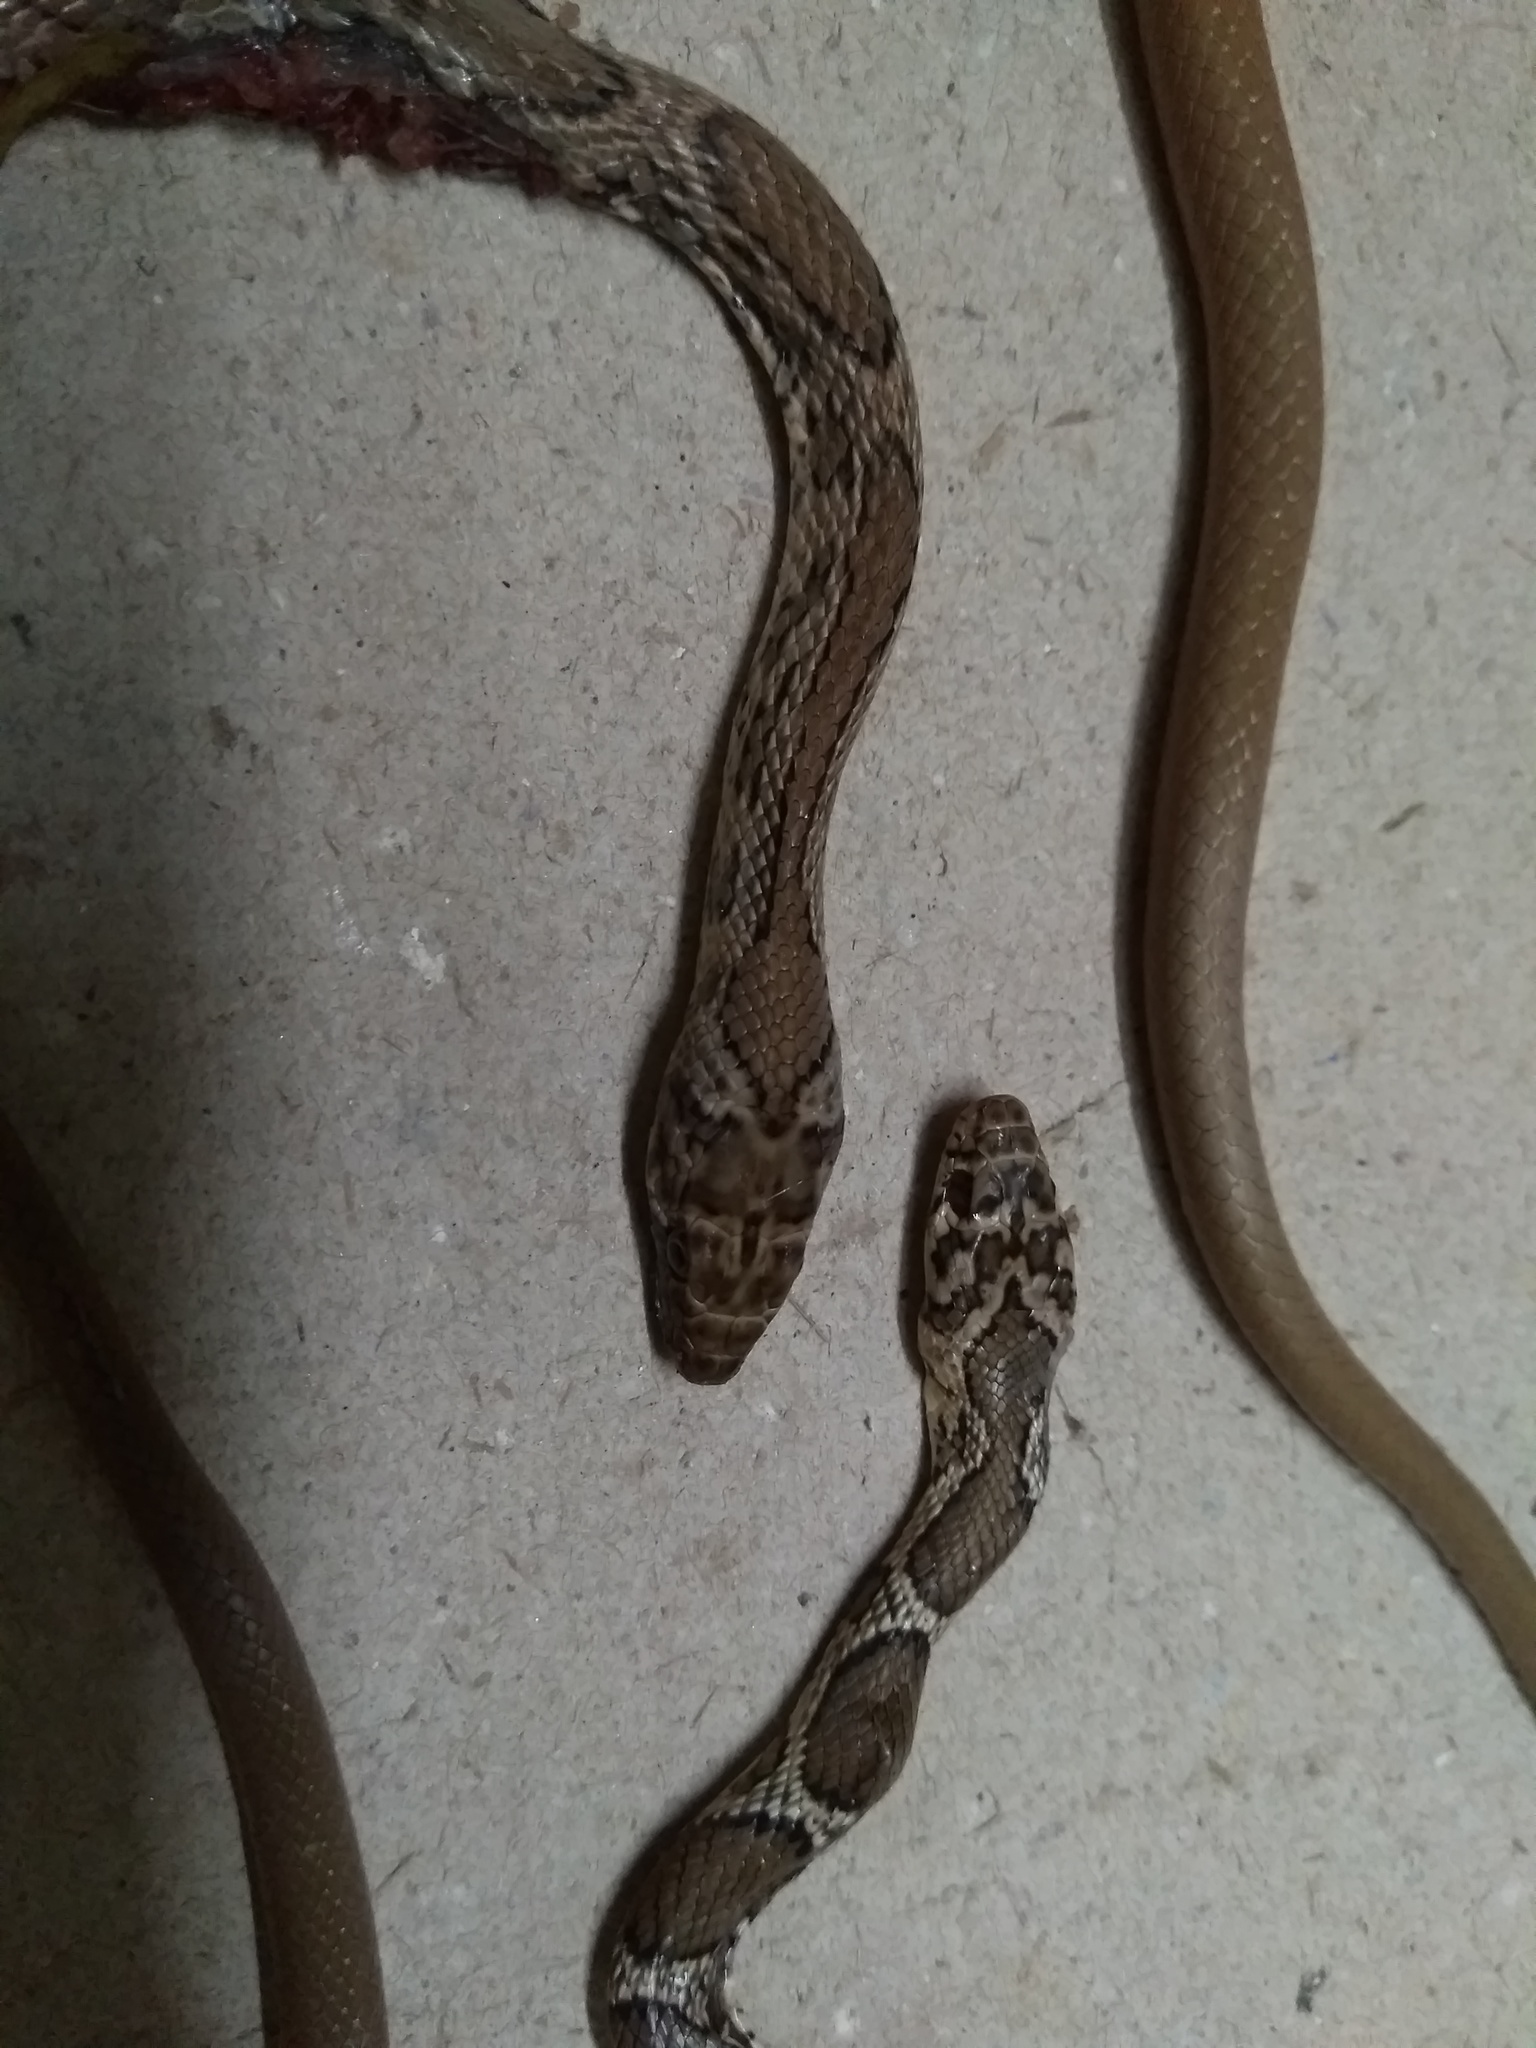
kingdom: Animalia
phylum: Chordata
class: Squamata
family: Colubridae
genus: Platyceps
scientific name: Platyceps bholanathi
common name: Nagarjunasagar racer
